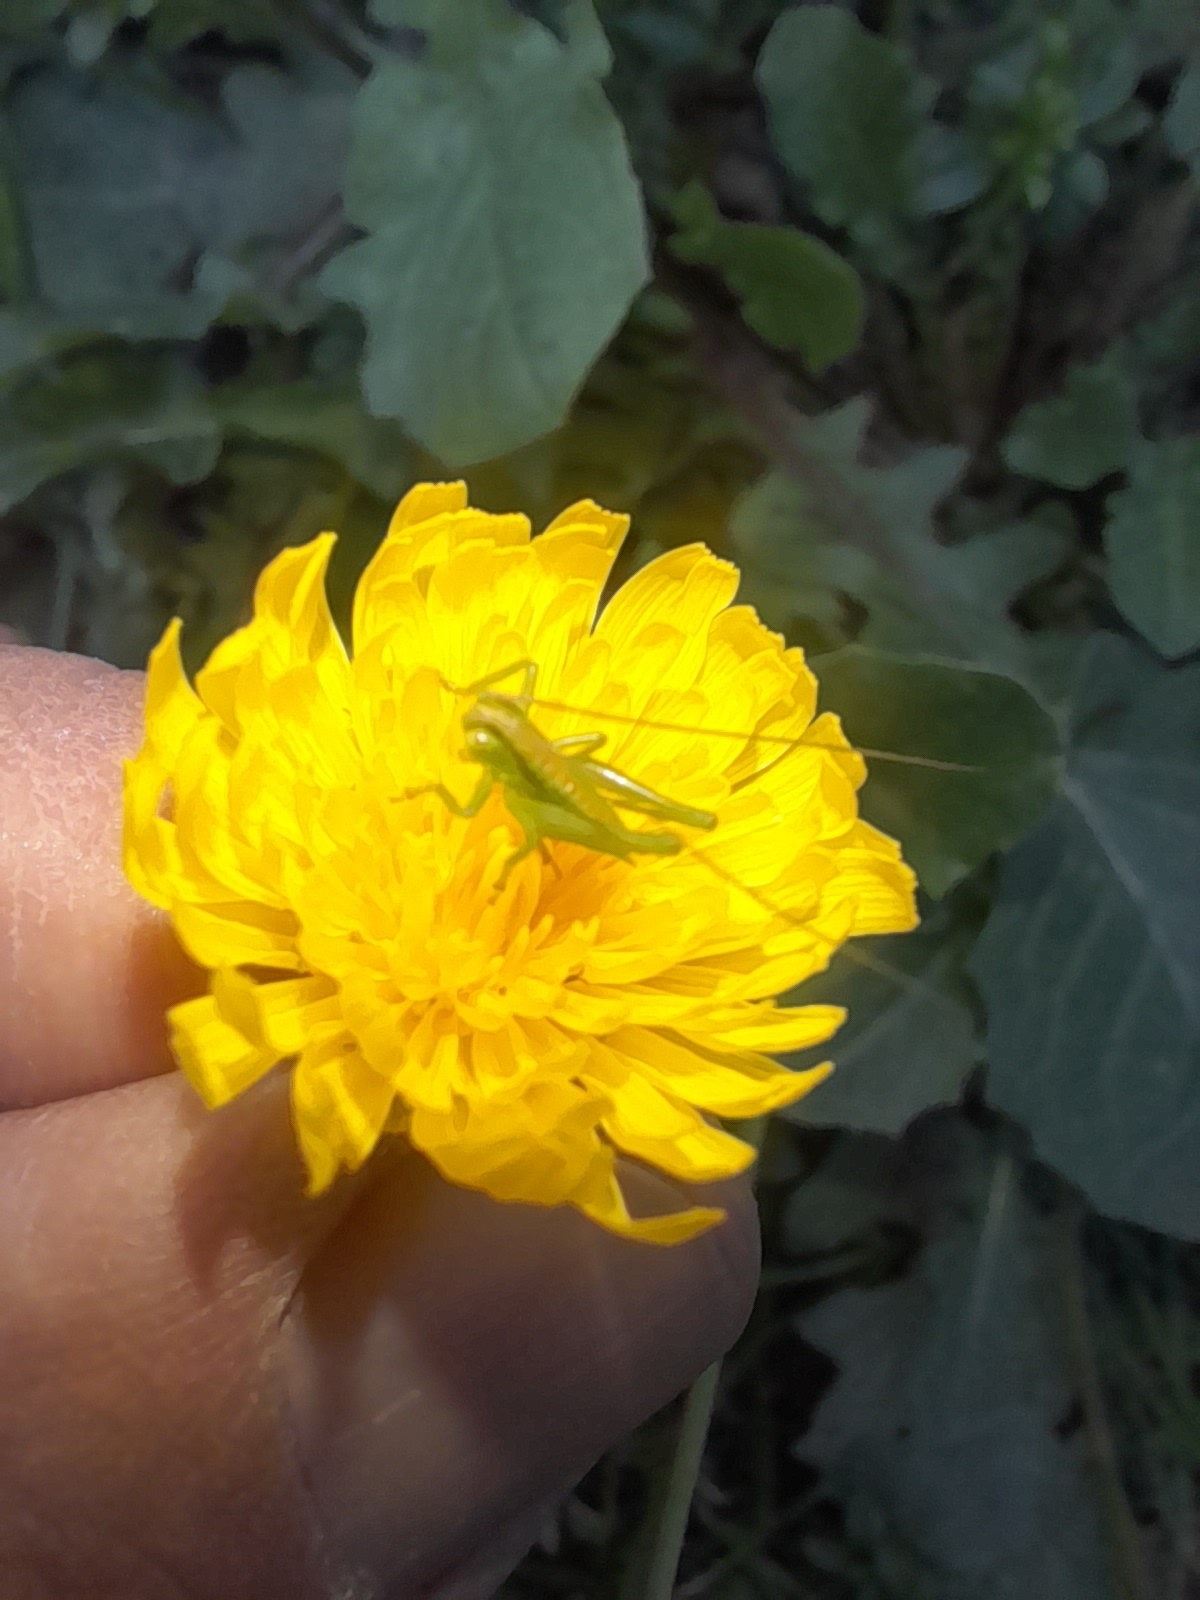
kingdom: Animalia
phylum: Arthropoda
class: Insecta
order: Orthoptera
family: Tettigoniidae
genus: Tettigonia
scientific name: Tettigonia viridissima
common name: Great green bush-cricket
